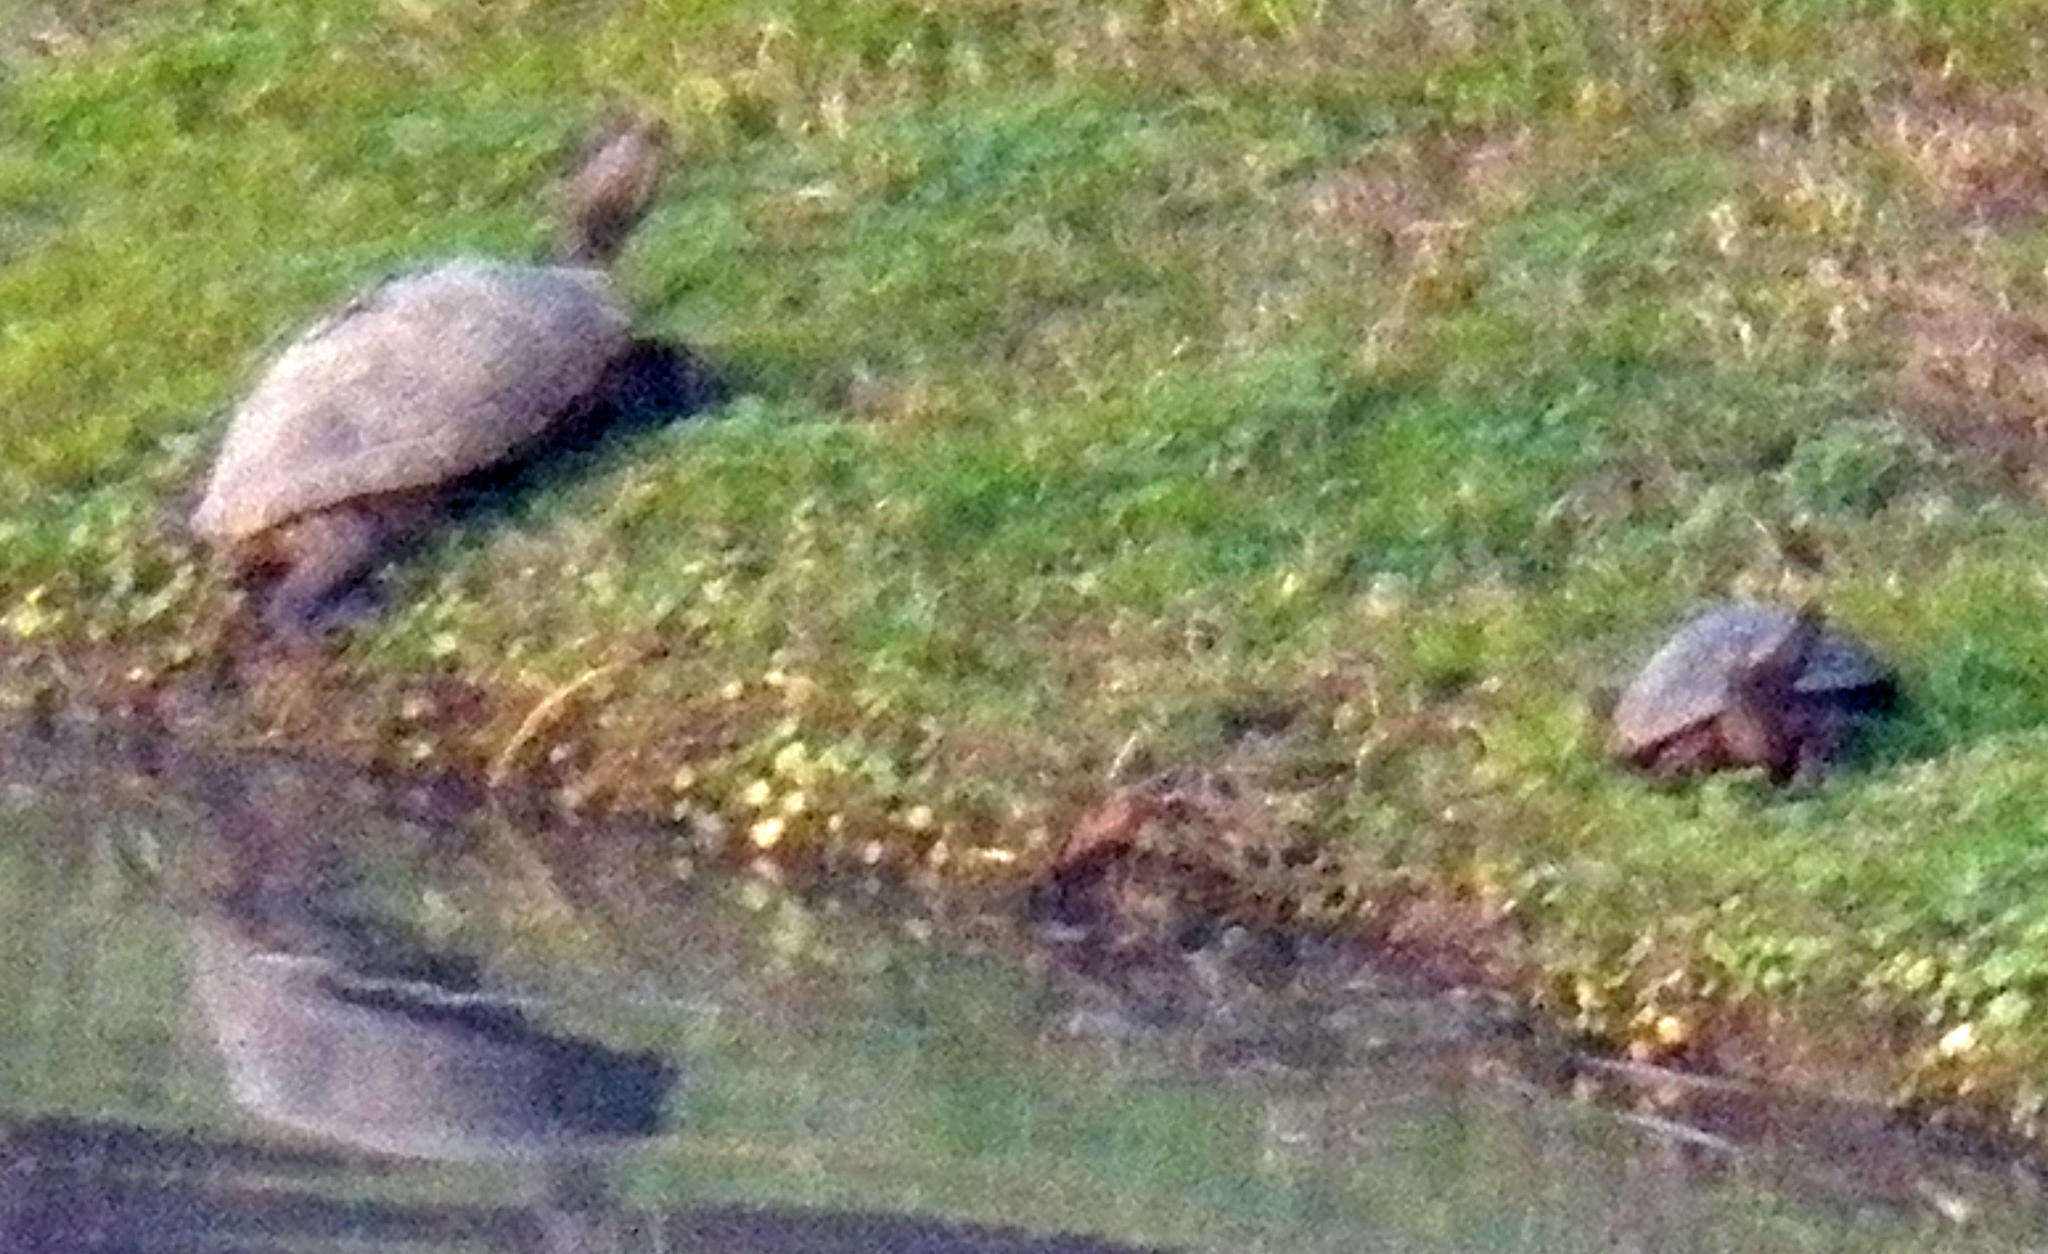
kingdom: Animalia
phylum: Chordata
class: Testudines
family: Emydidae
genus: Trachemys
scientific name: Trachemys scripta
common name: Slider
